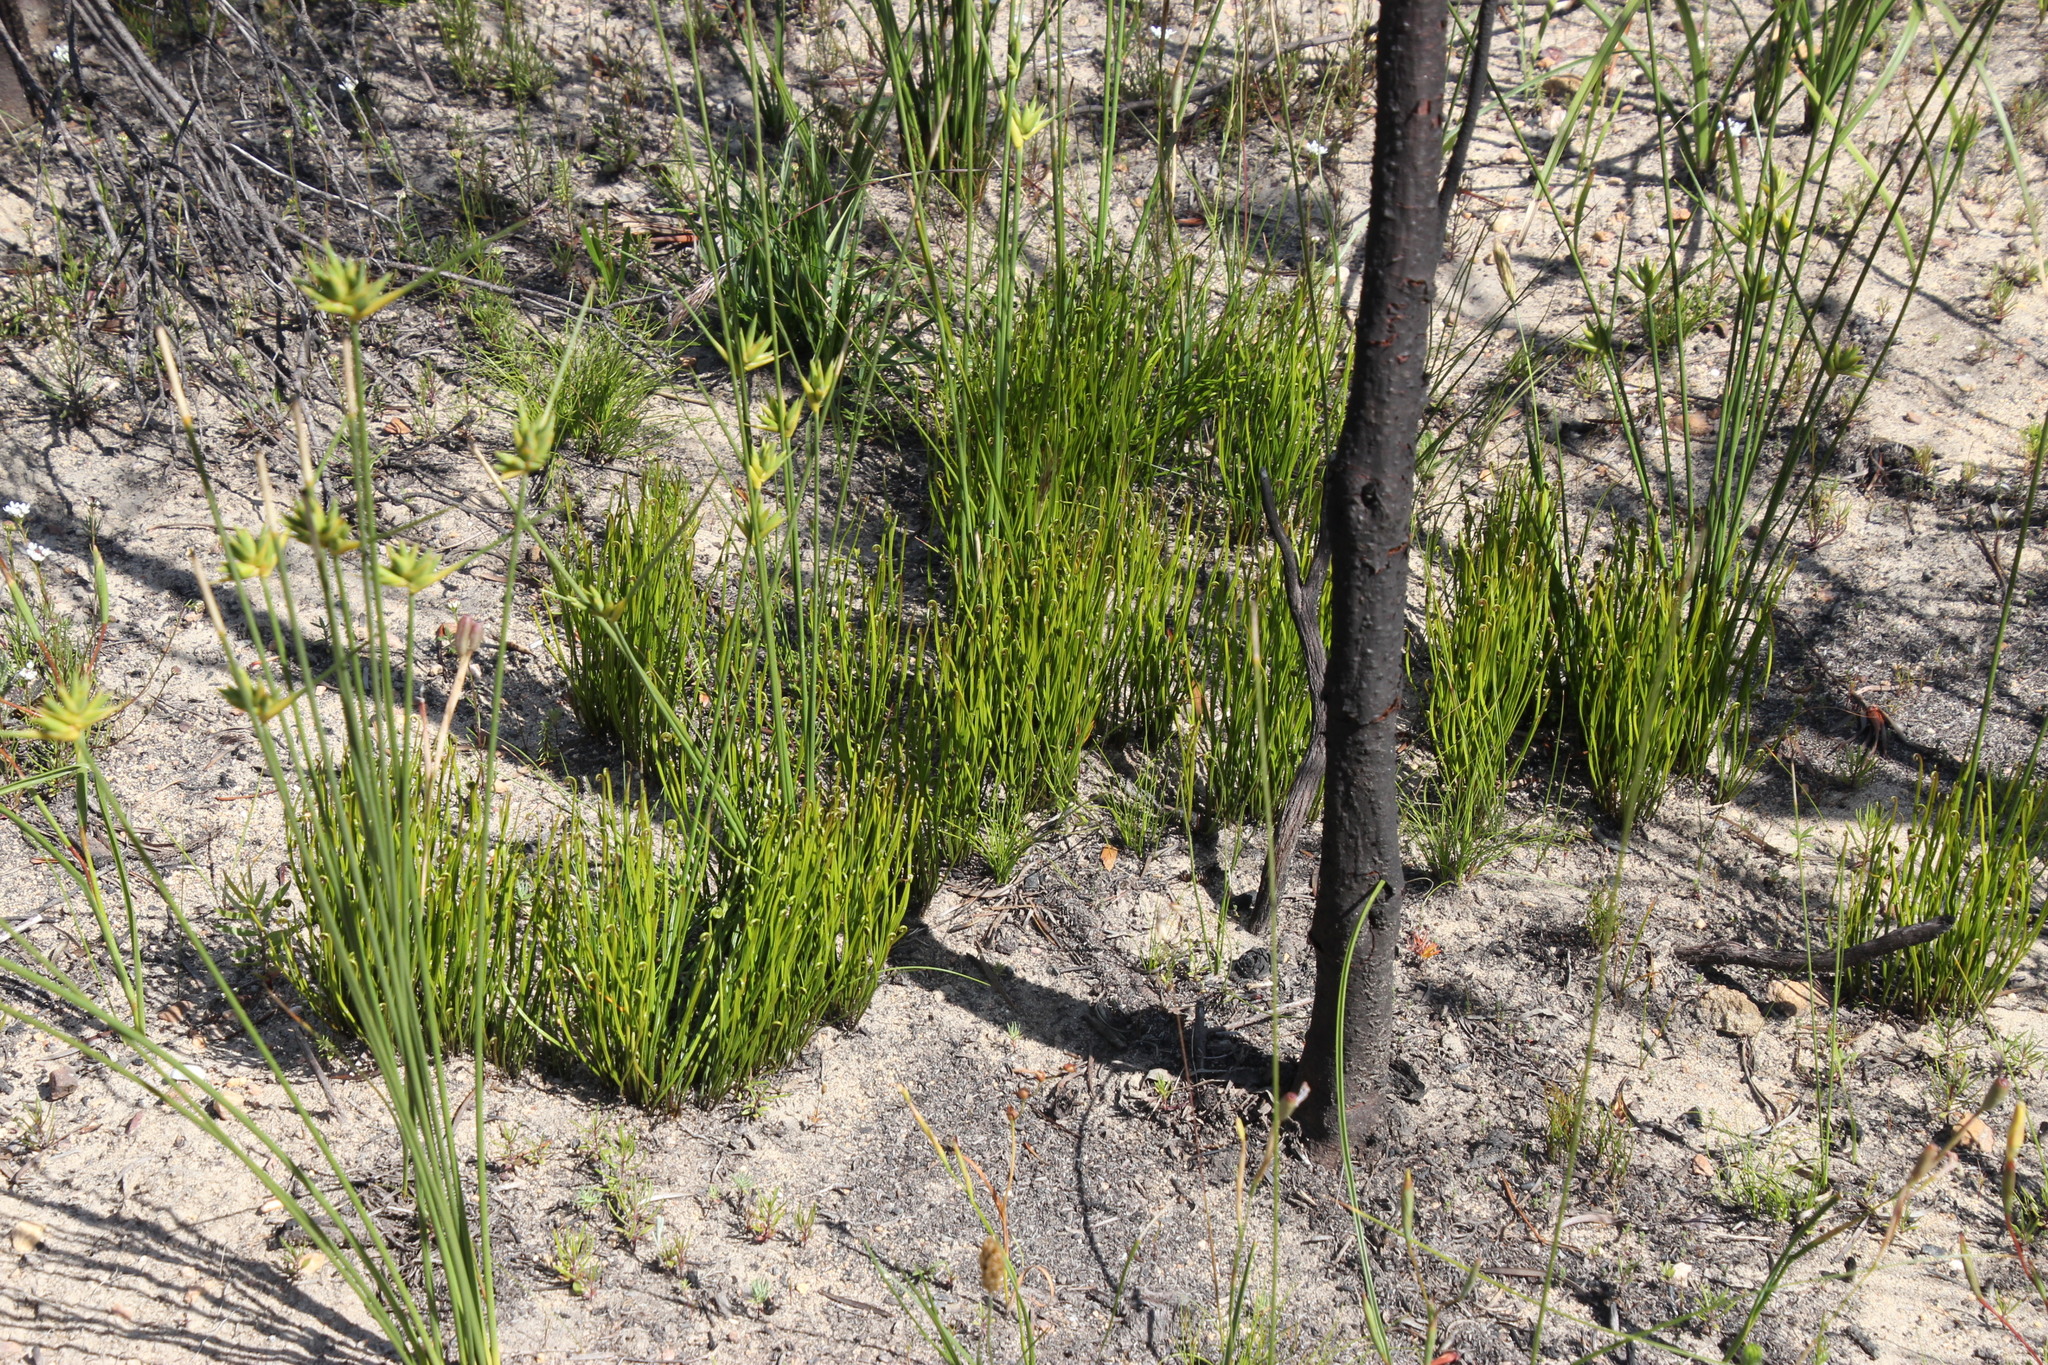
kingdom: Plantae
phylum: Tracheophyta
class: Polypodiopsida
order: Schizaeales
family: Schizaeaceae
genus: Schizaea
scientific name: Schizaea pectinata
